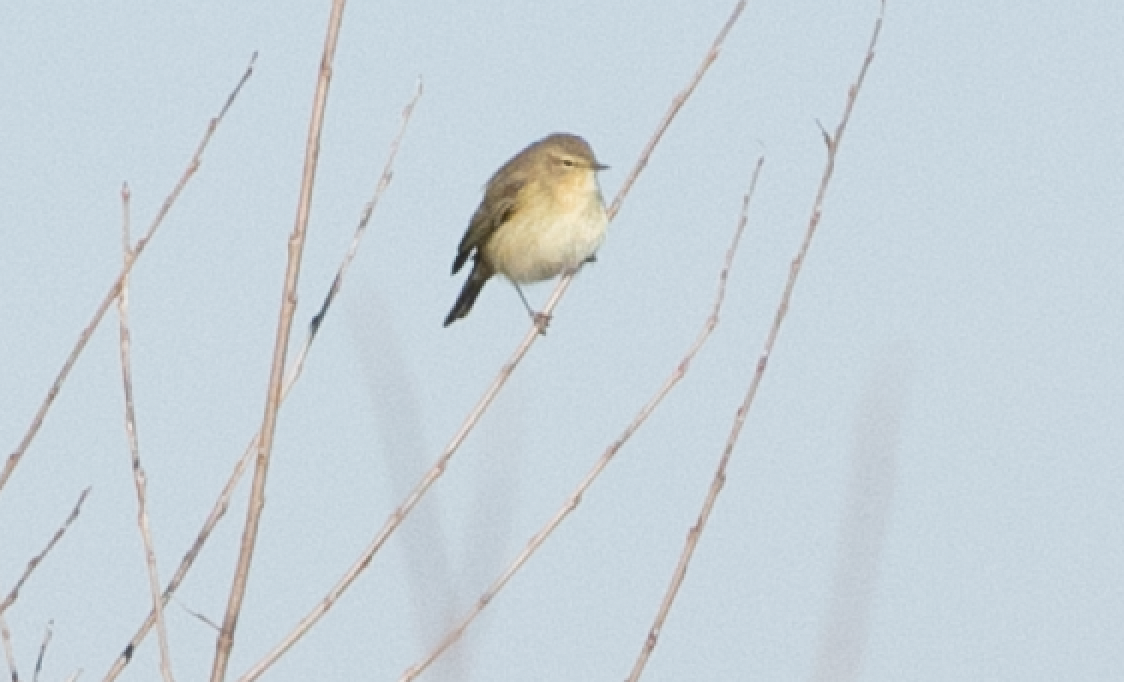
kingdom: Animalia
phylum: Chordata
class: Aves
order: Passeriformes
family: Phylloscopidae
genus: Phylloscopus
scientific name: Phylloscopus collybita
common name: Common chiffchaff
